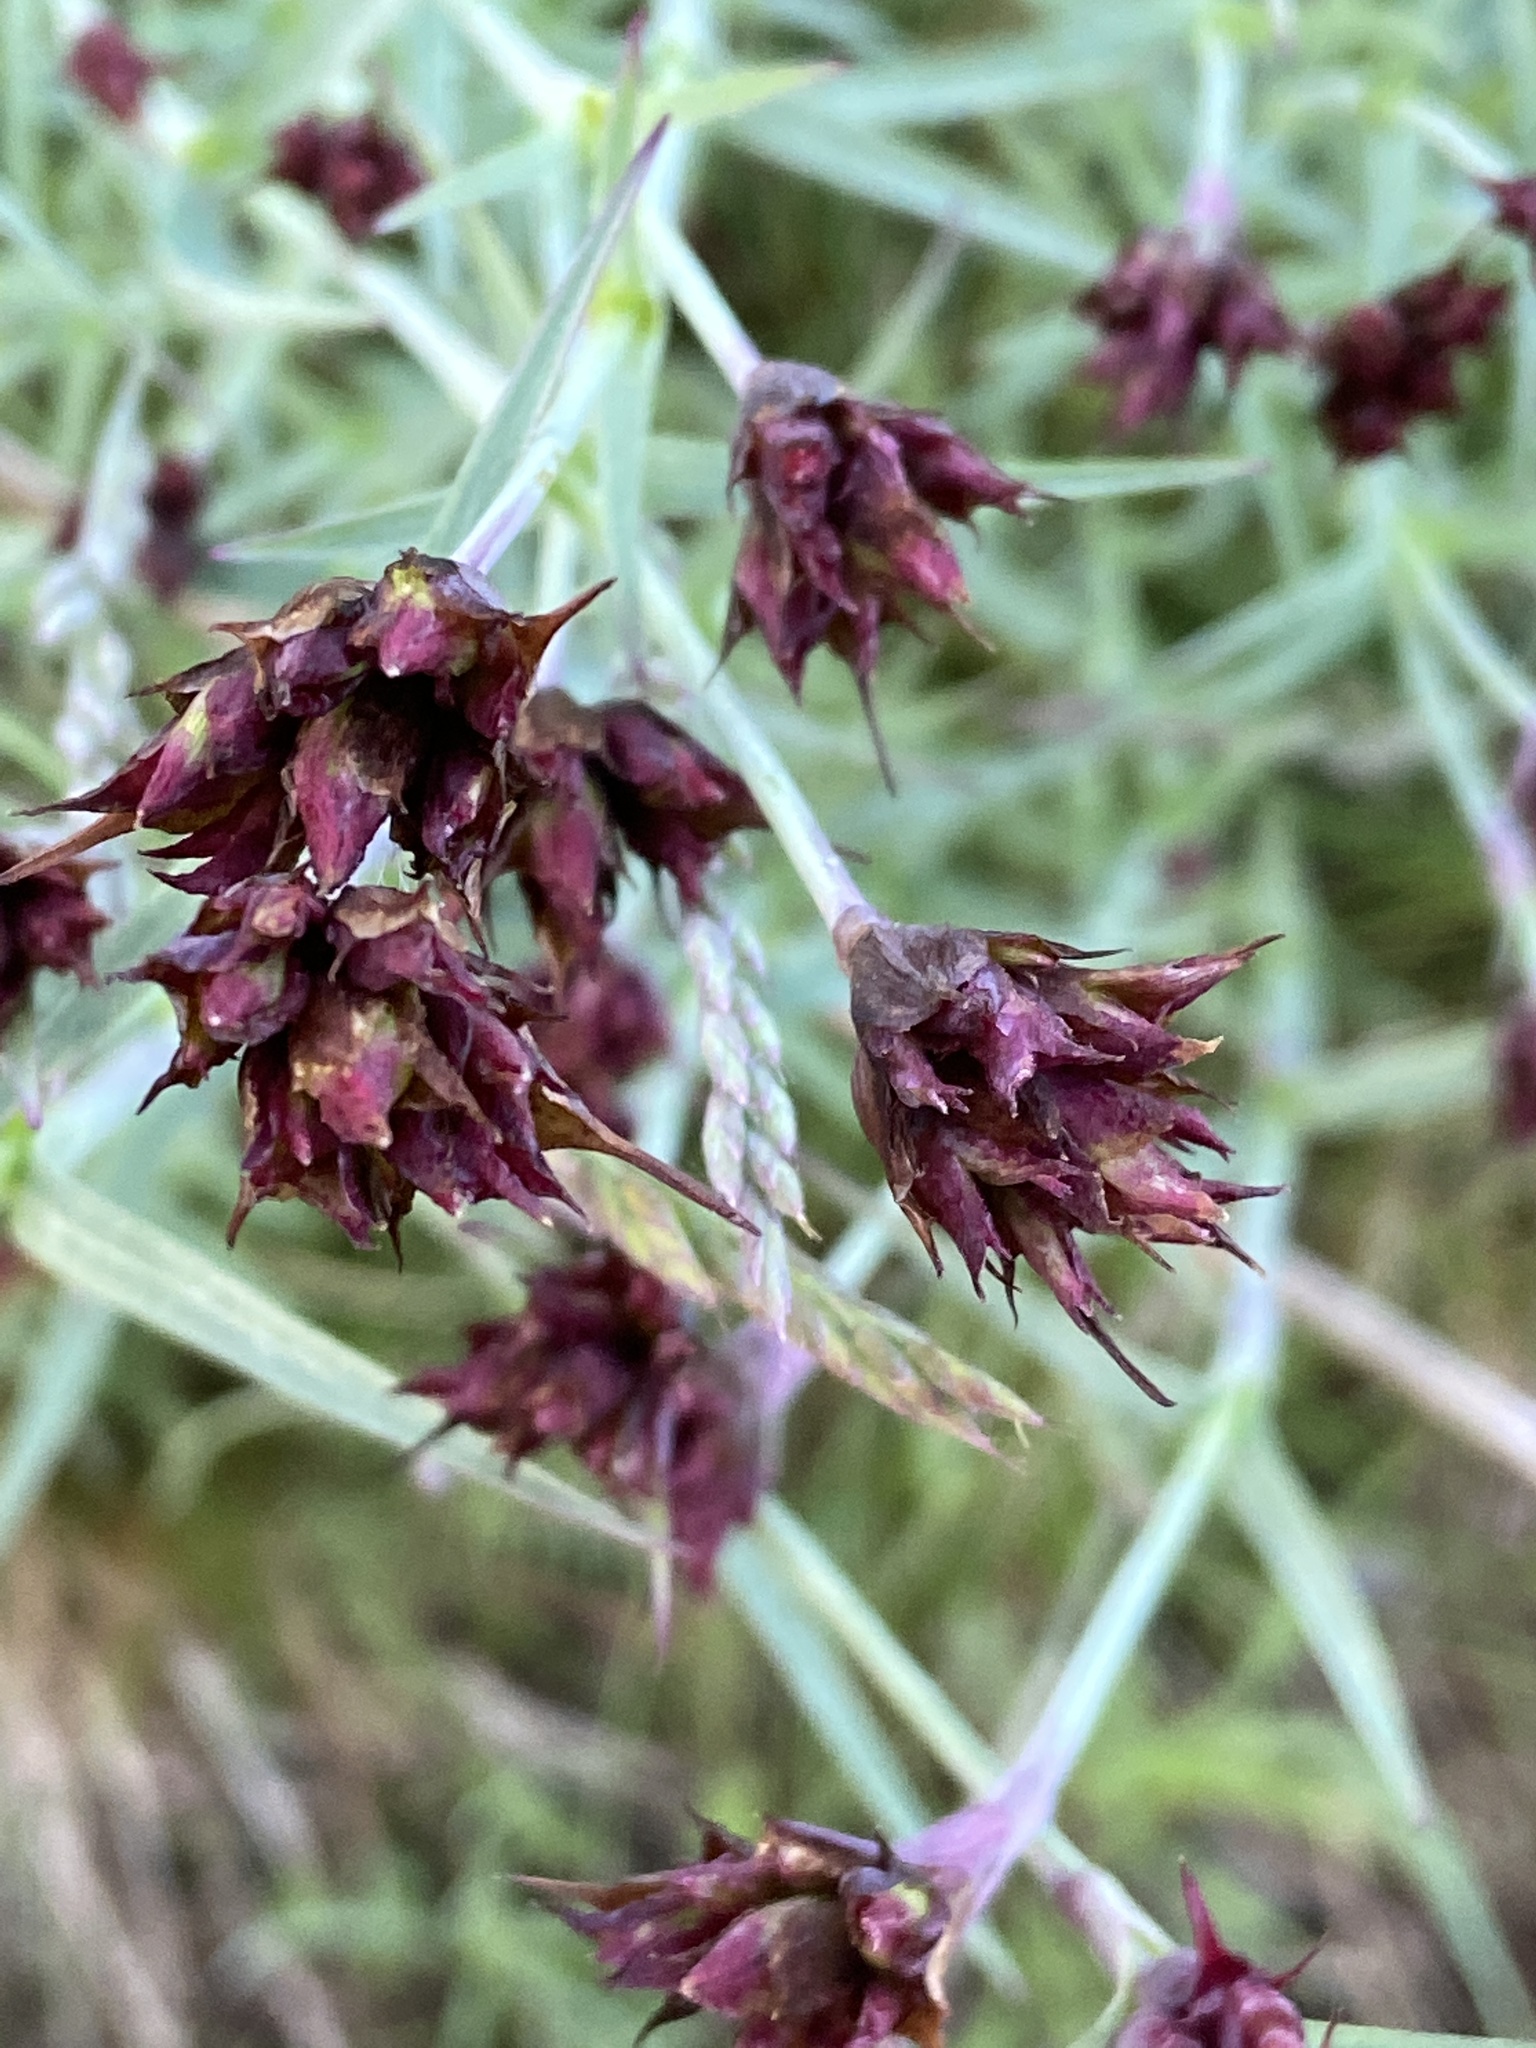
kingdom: Plantae
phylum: Tracheophyta
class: Magnoliopsida
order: Caryophyllales
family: Caryophyllaceae
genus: Dianthus
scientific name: Dianthus carthusianorum
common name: Carthusian pink
